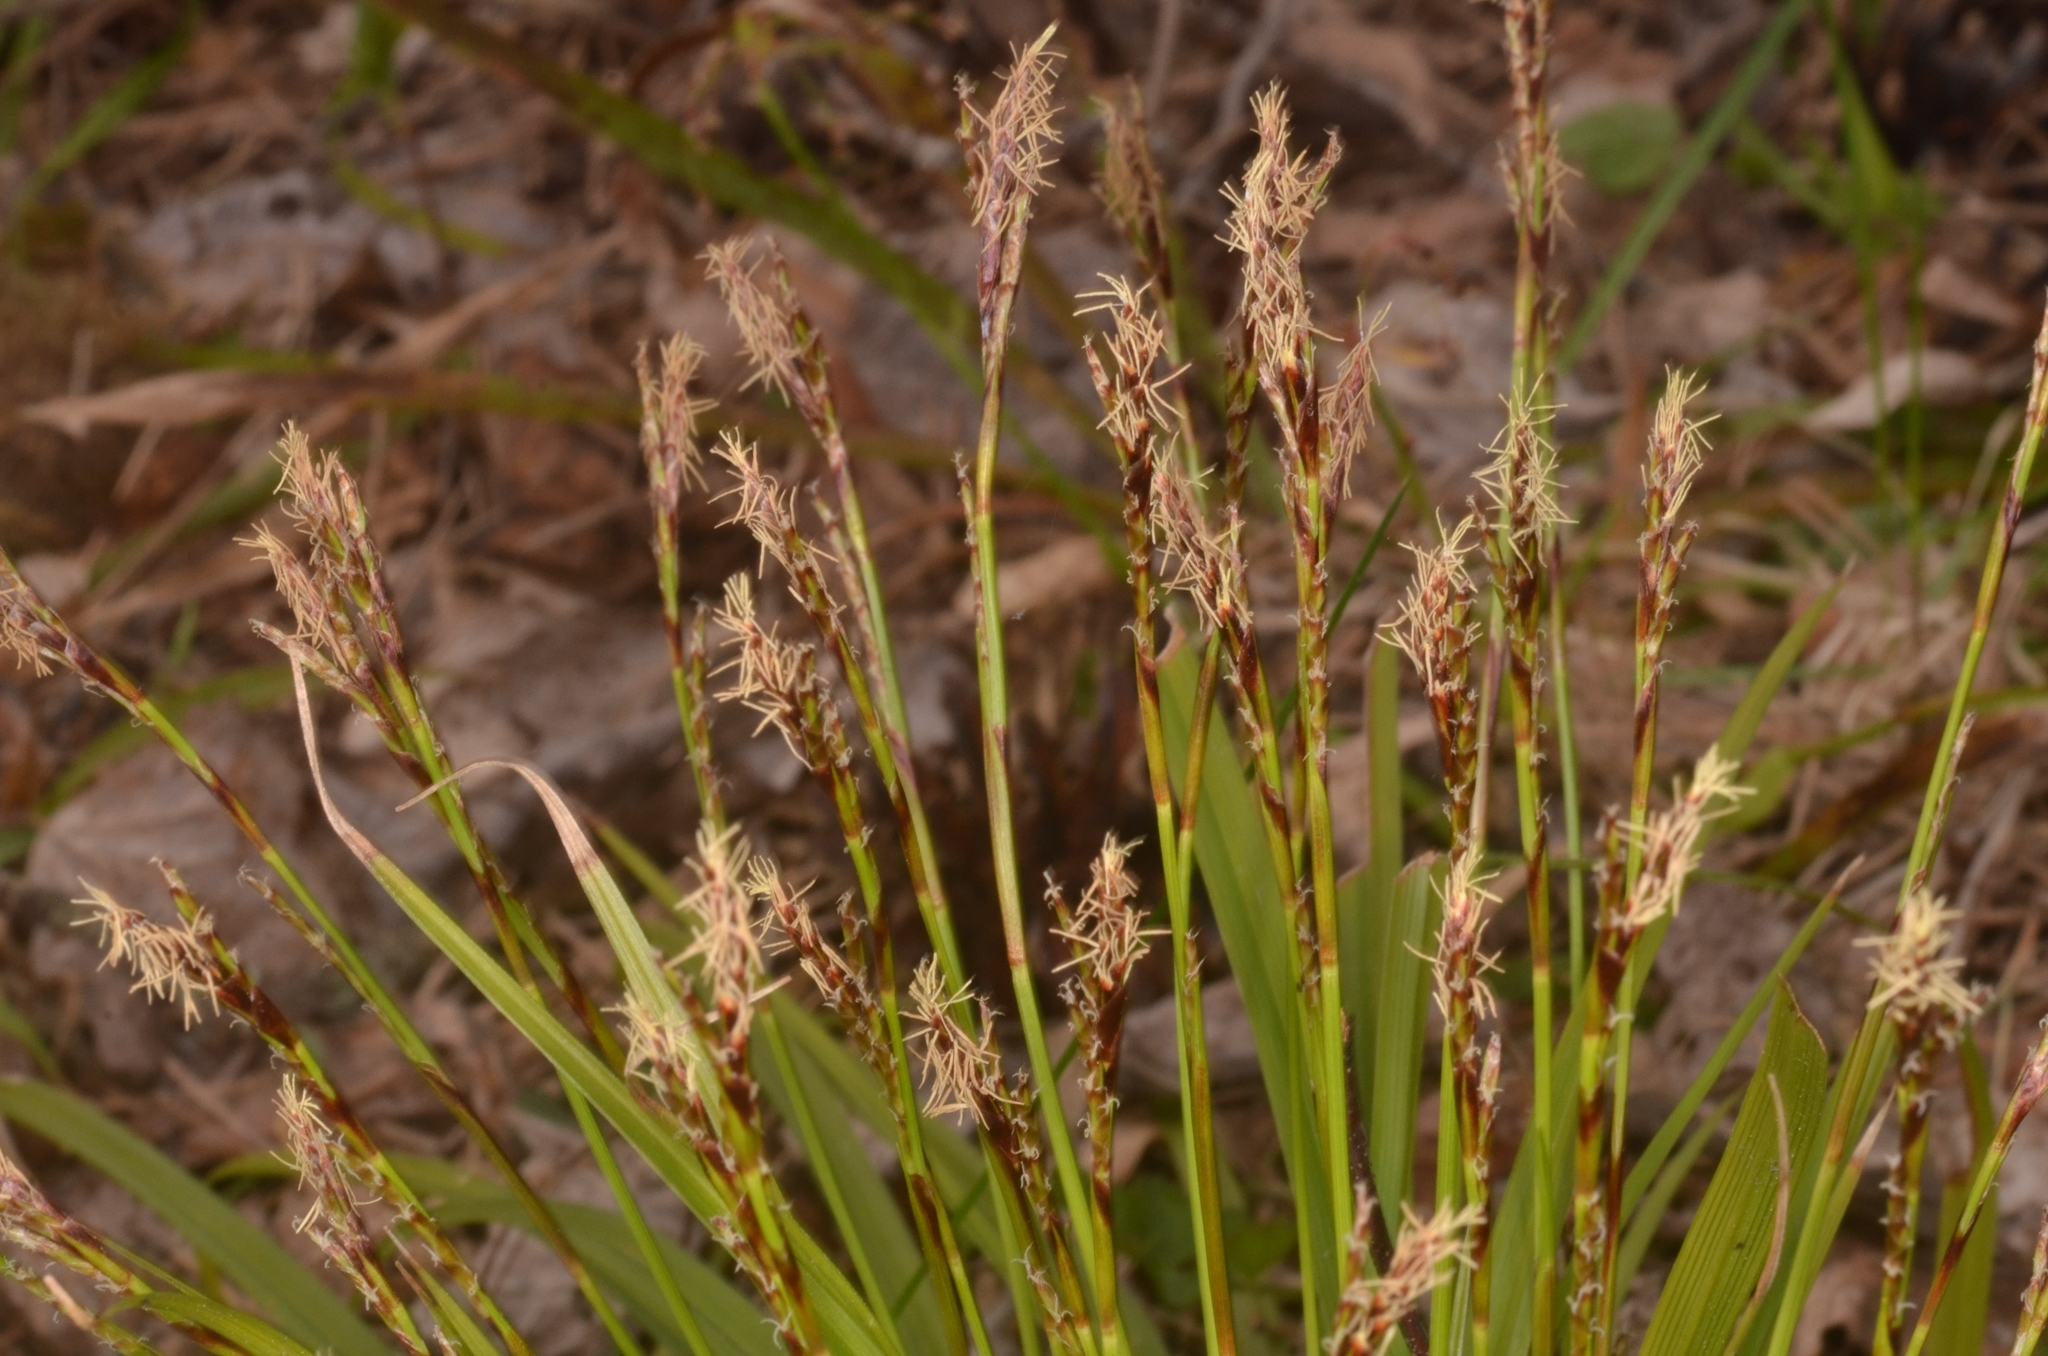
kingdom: Plantae
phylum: Tracheophyta
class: Liliopsida
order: Poales
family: Cyperaceae
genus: Carex
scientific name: Carex digitata
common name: Fingered sedge
